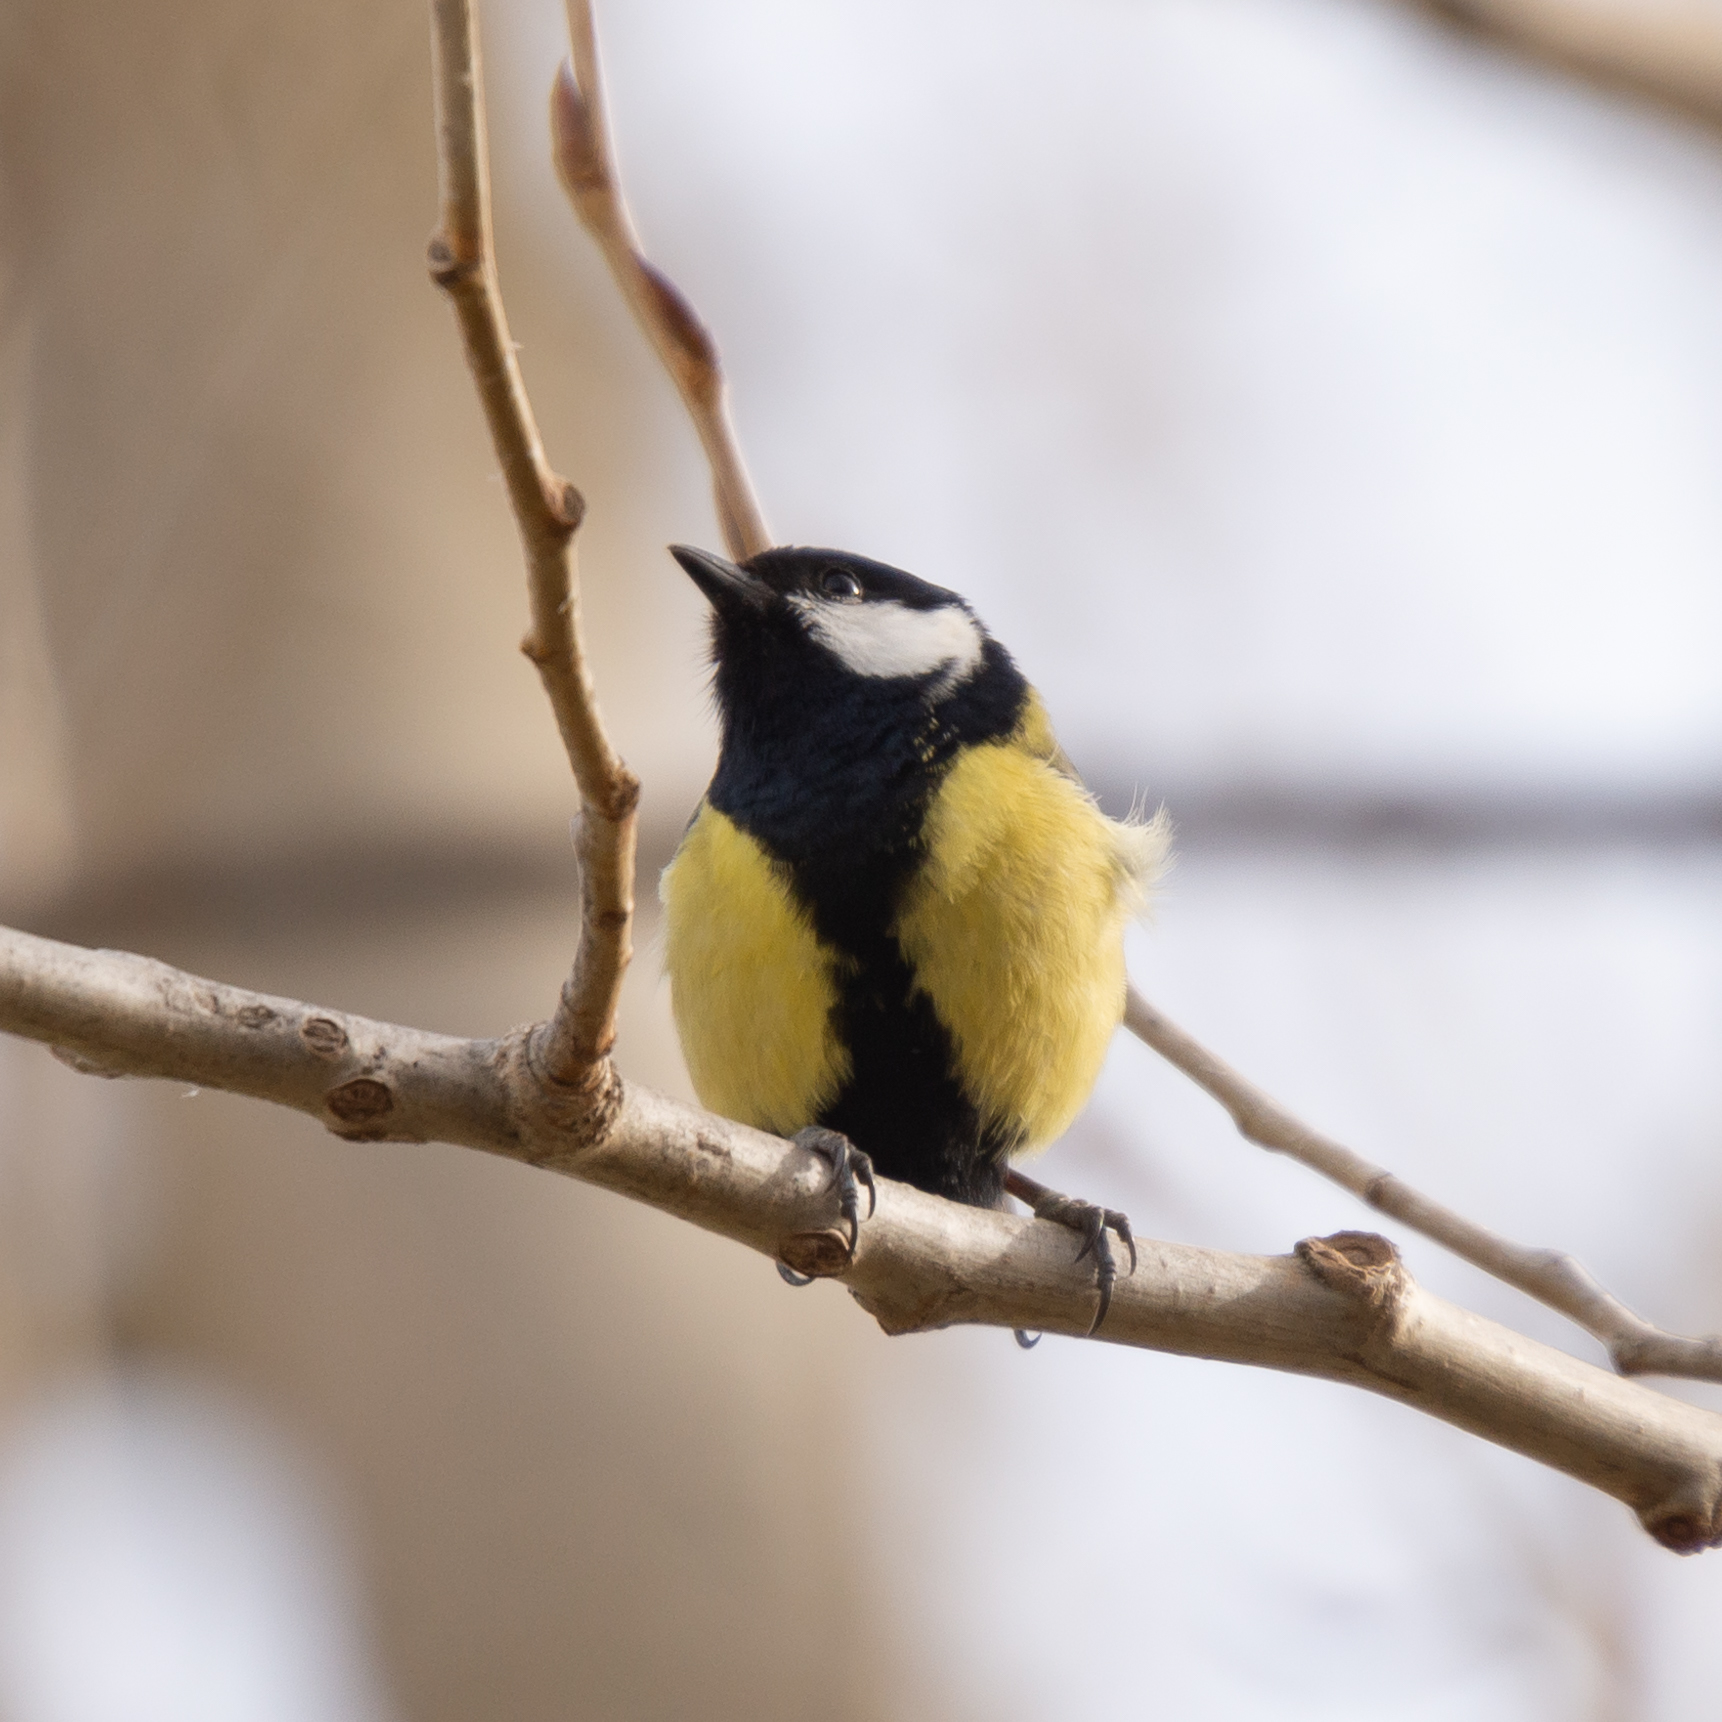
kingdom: Animalia
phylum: Chordata
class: Aves
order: Passeriformes
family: Paridae
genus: Parus
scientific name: Parus major
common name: Great tit
